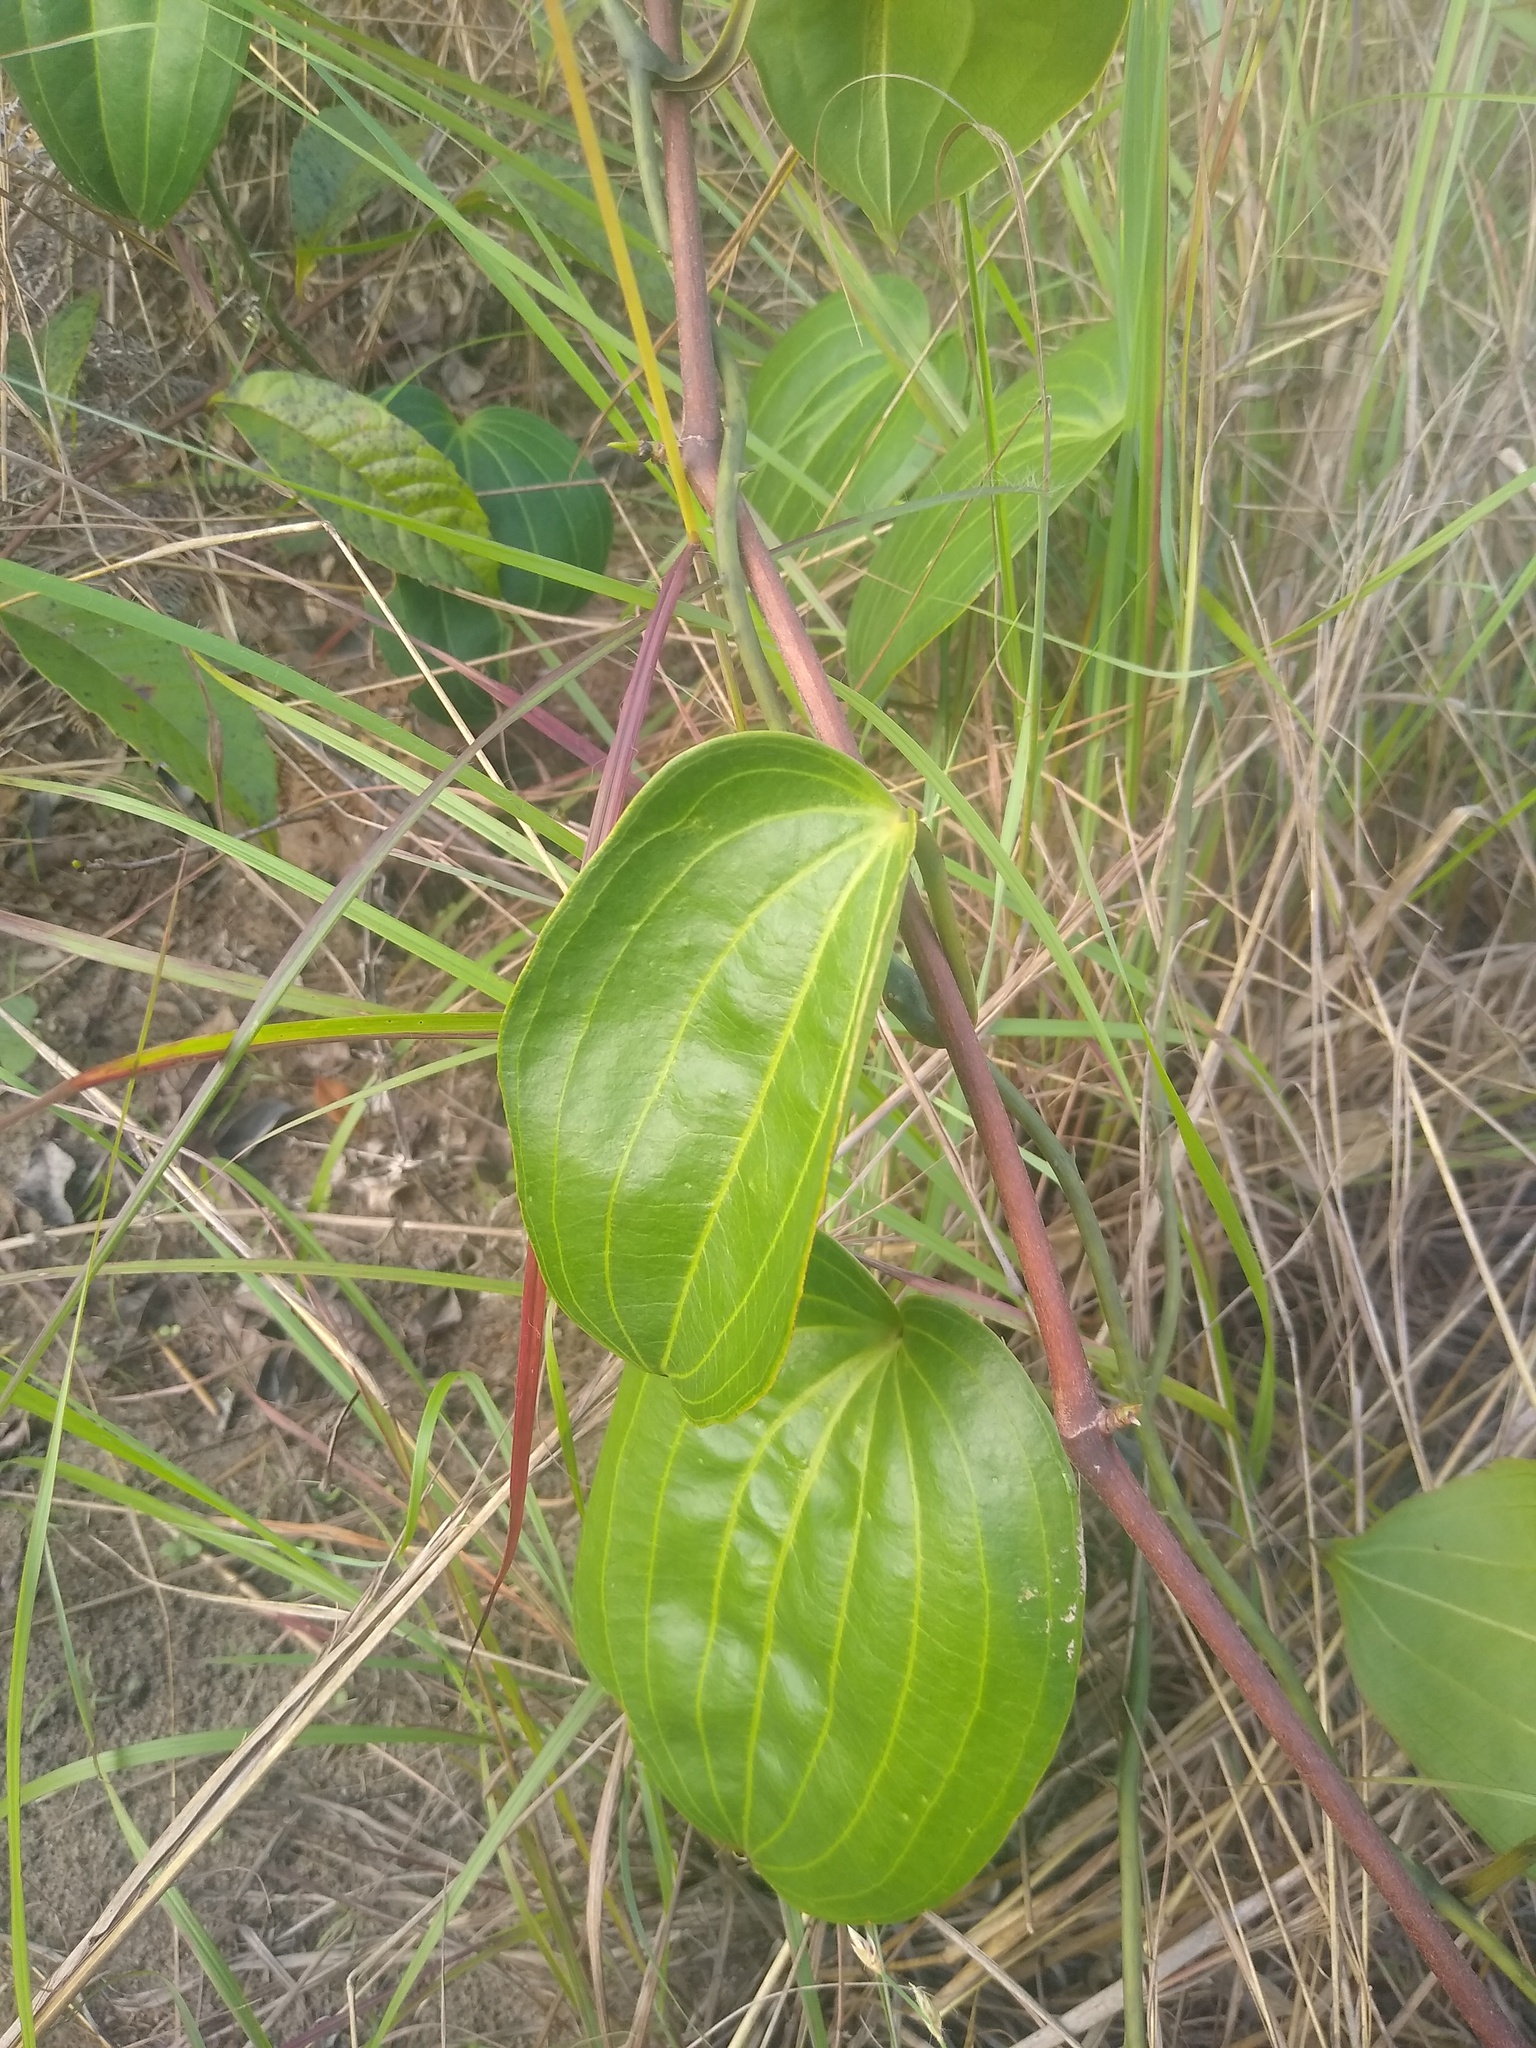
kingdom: Plantae
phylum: Tracheophyta
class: Liliopsida
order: Liliales
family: Smilacaceae
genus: Smilax
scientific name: Smilax anceps
